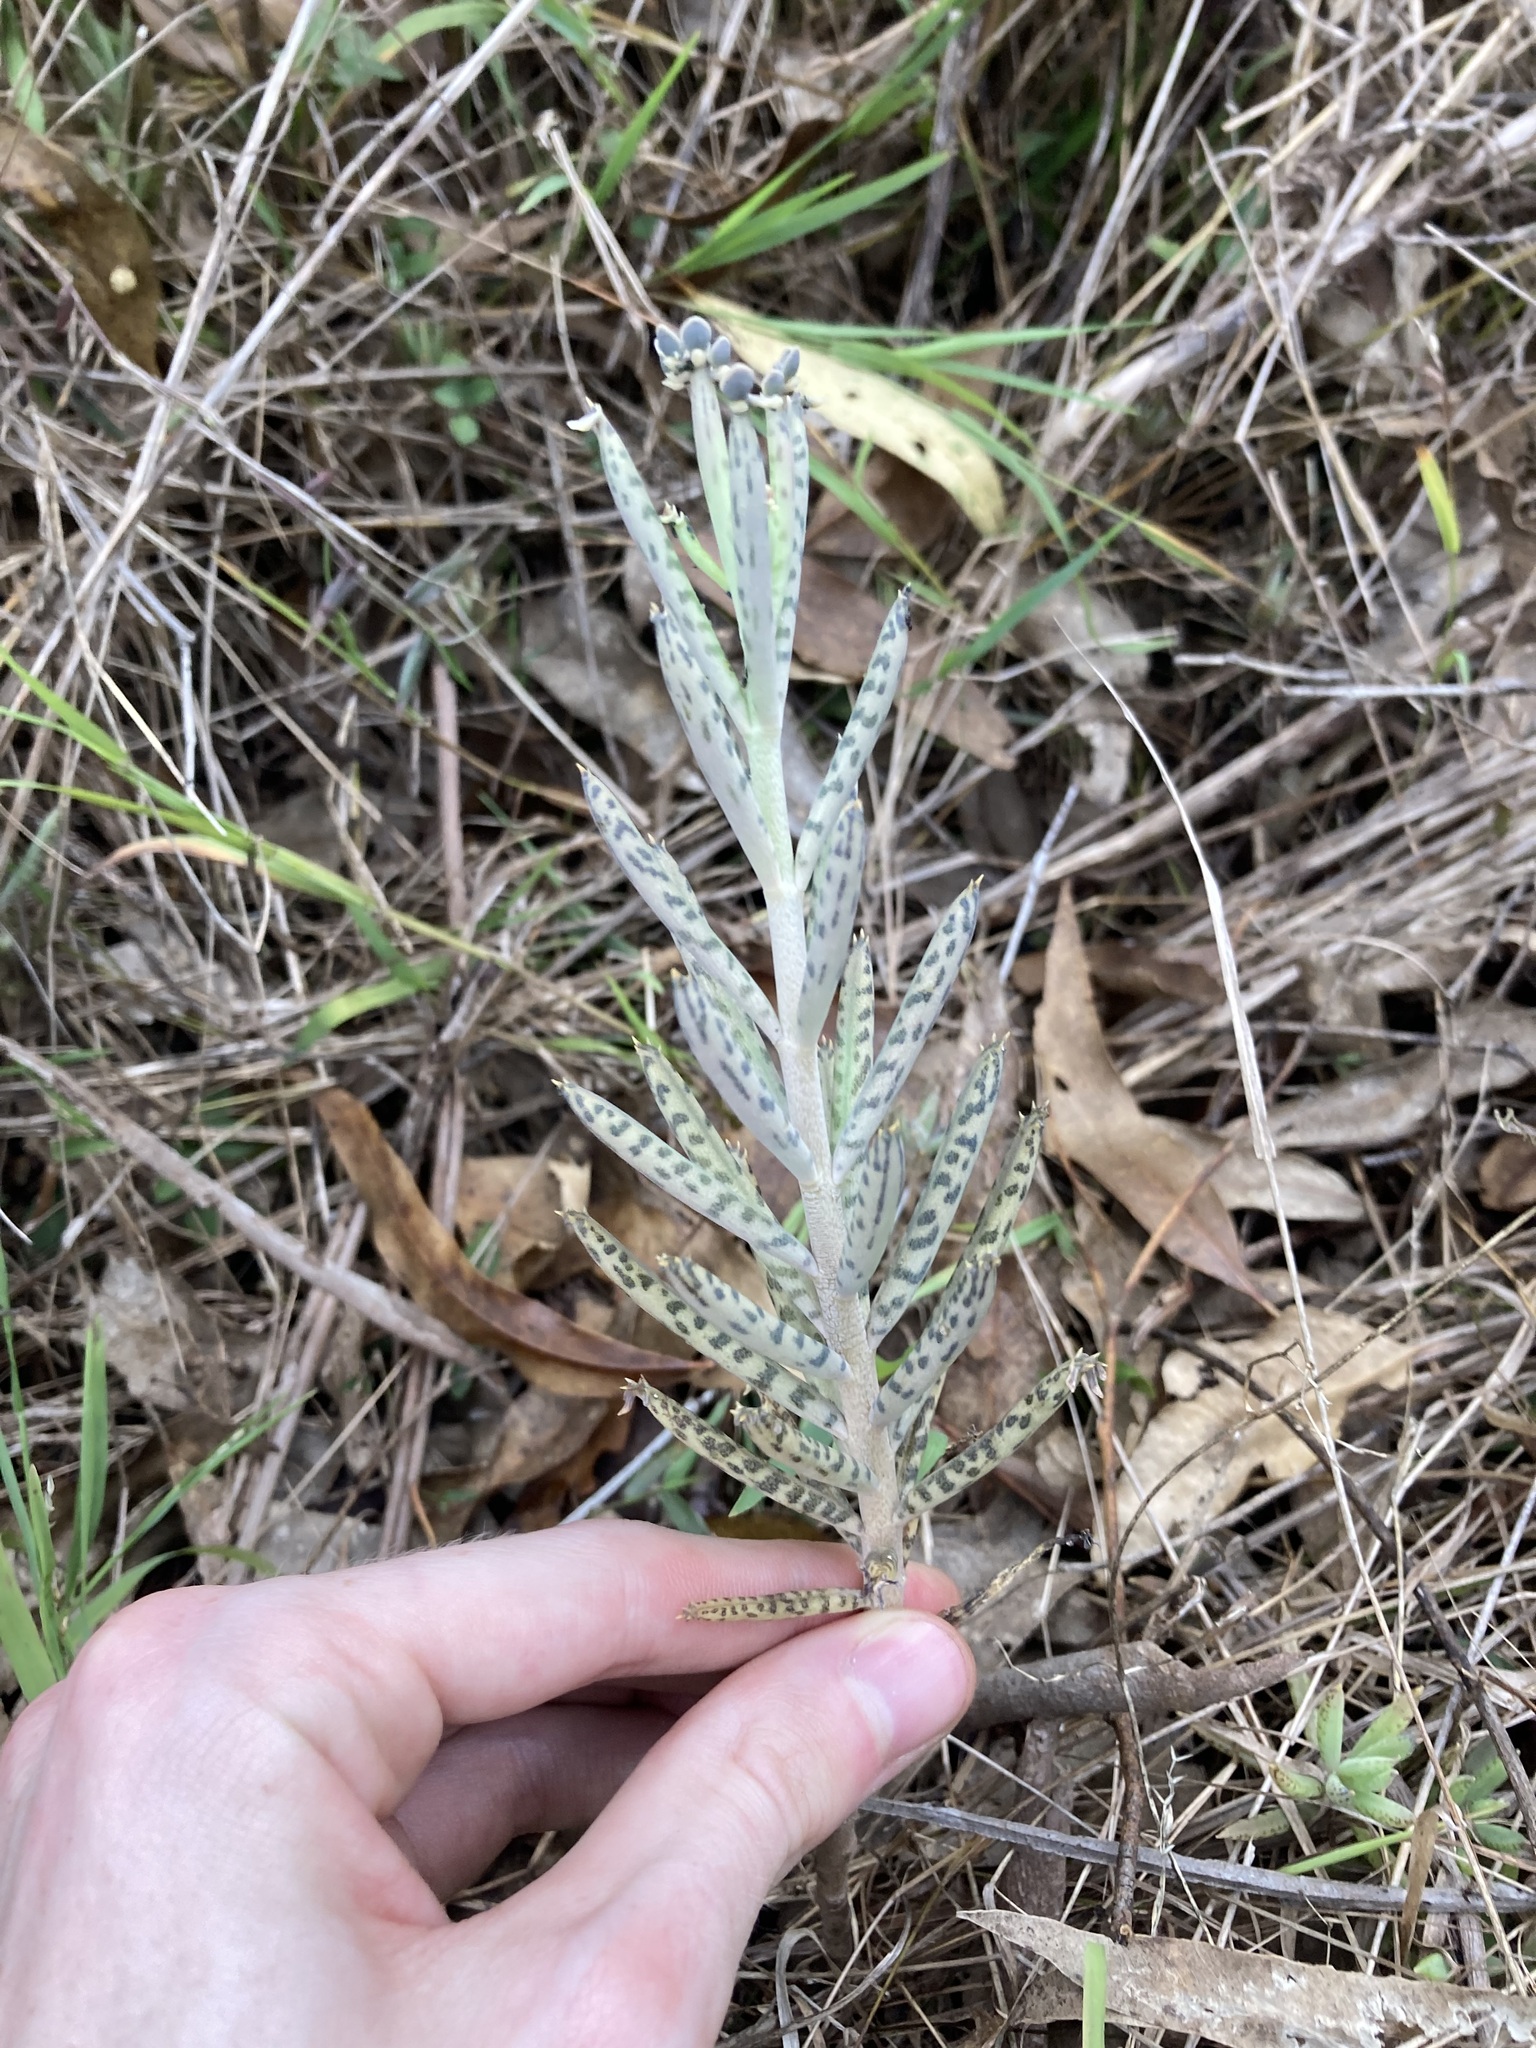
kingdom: Plantae
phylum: Tracheophyta
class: Magnoliopsida
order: Saxifragales
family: Crassulaceae
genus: Kalanchoe
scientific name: Kalanchoe delagoensis
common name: Chandelier plant
